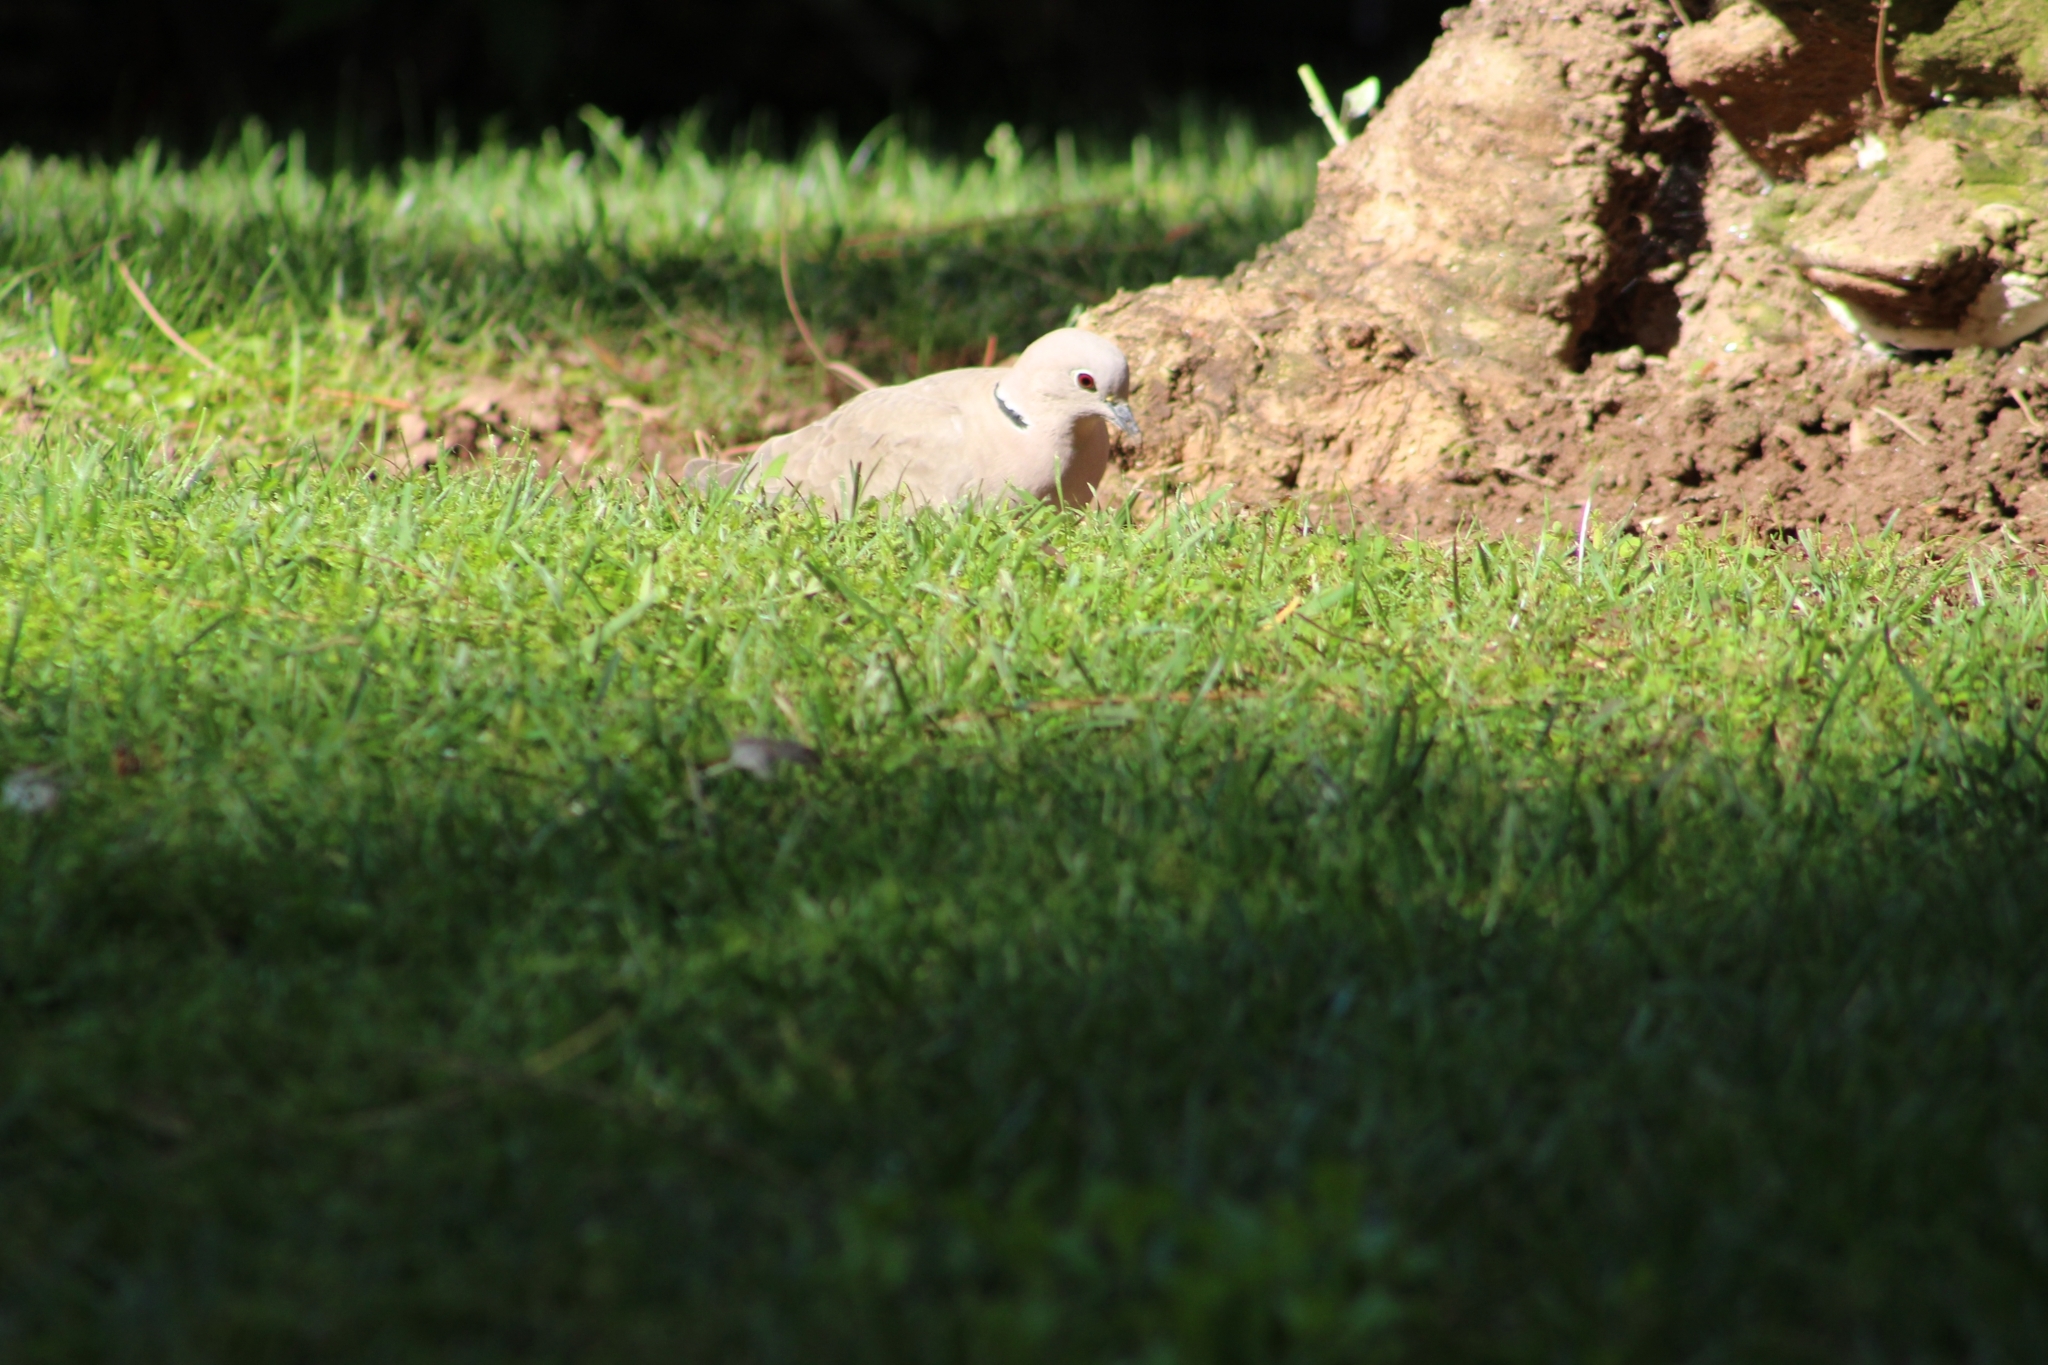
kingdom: Animalia
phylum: Chordata
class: Aves
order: Columbiformes
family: Columbidae
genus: Streptopelia
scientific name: Streptopelia decaocto
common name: Eurasian collared dove
